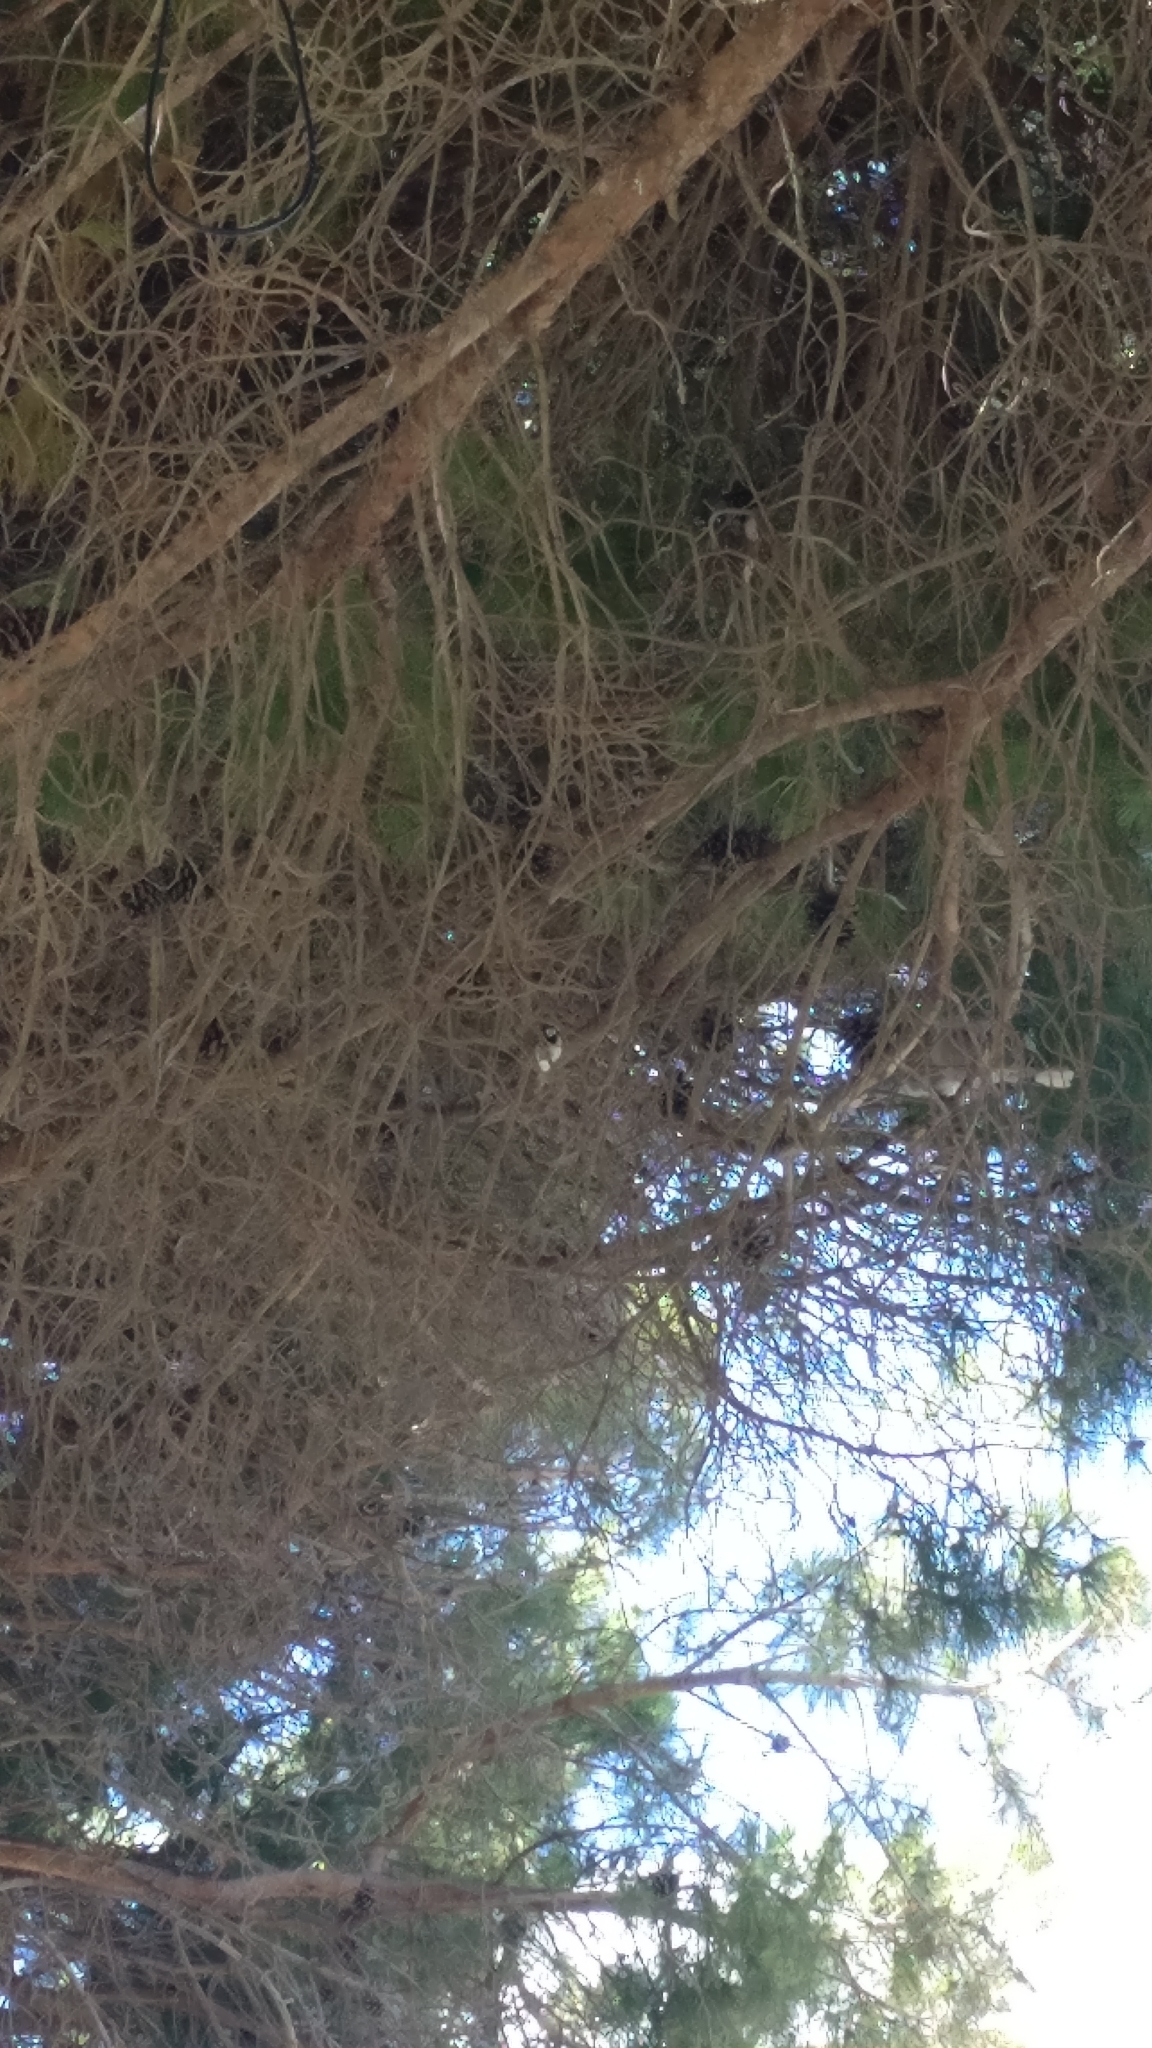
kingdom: Animalia
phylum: Chordata
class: Aves
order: Passeriformes
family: Passeridae
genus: Passer
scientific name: Passer domesticus
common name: House sparrow
